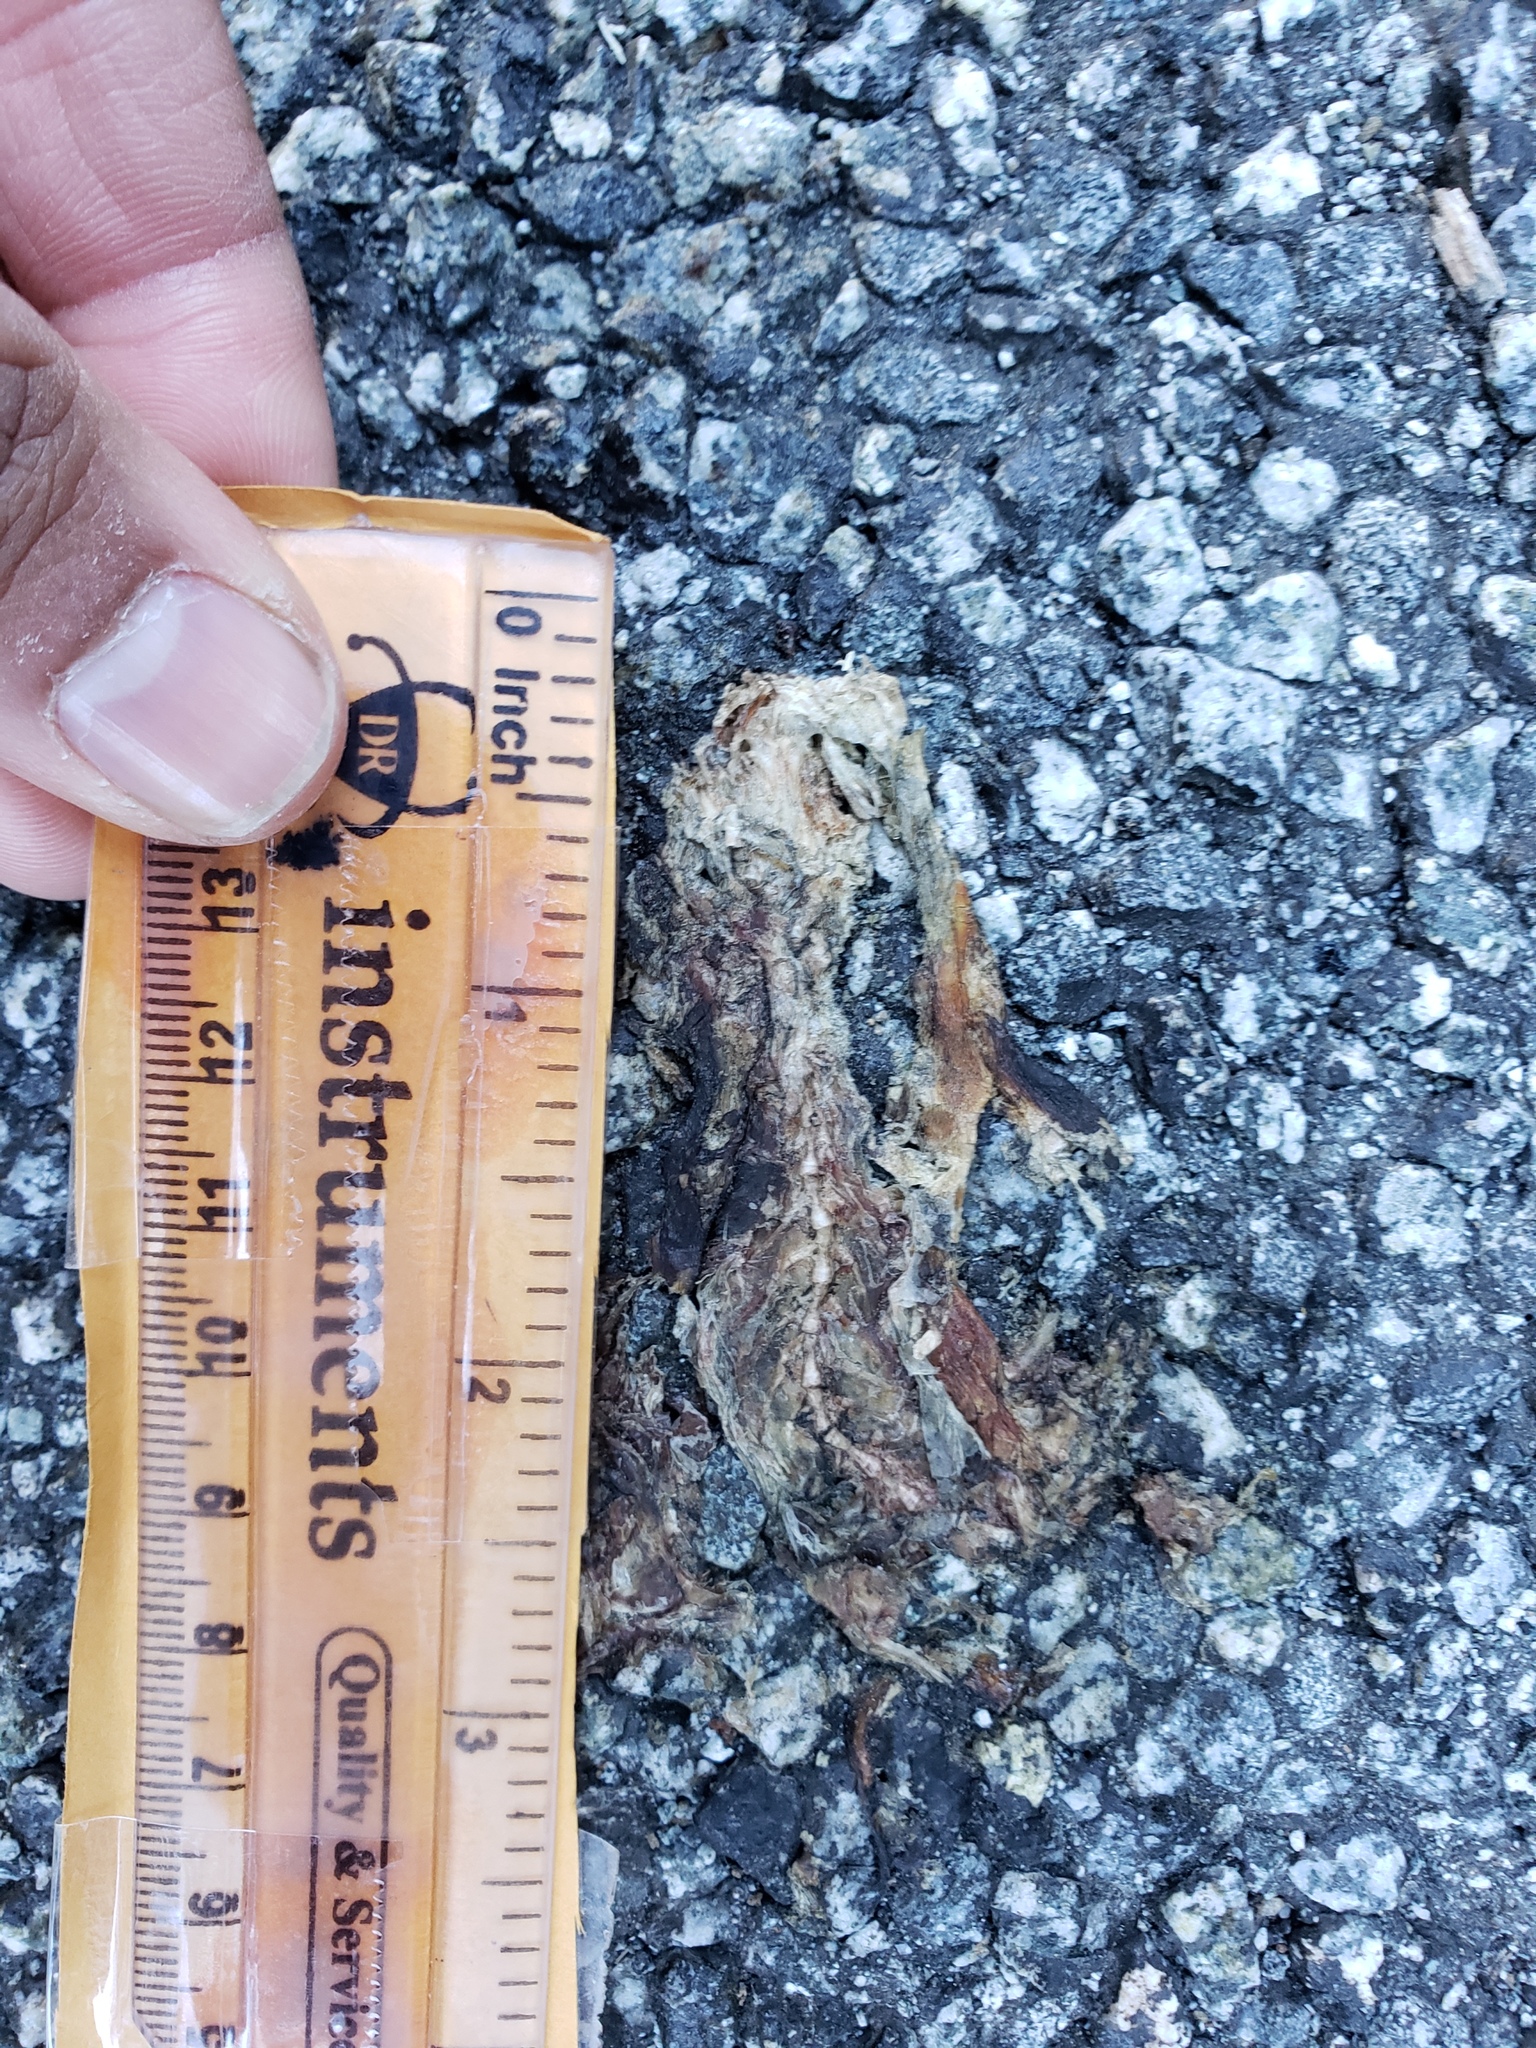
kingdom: Animalia
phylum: Chordata
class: Amphibia
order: Caudata
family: Salamandridae
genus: Taricha
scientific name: Taricha
